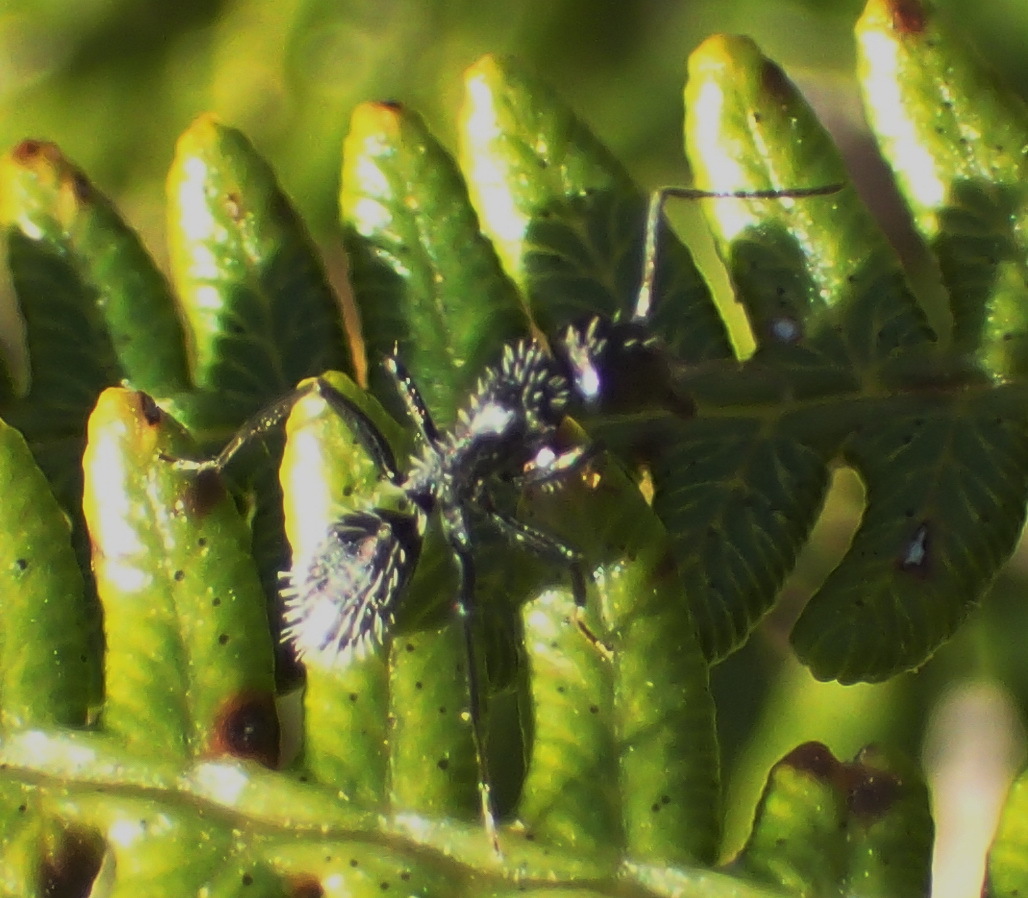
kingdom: Animalia
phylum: Arthropoda
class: Insecta
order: Hymenoptera
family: Formicidae
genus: Camponotus
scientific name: Camponotus niveosetosus
